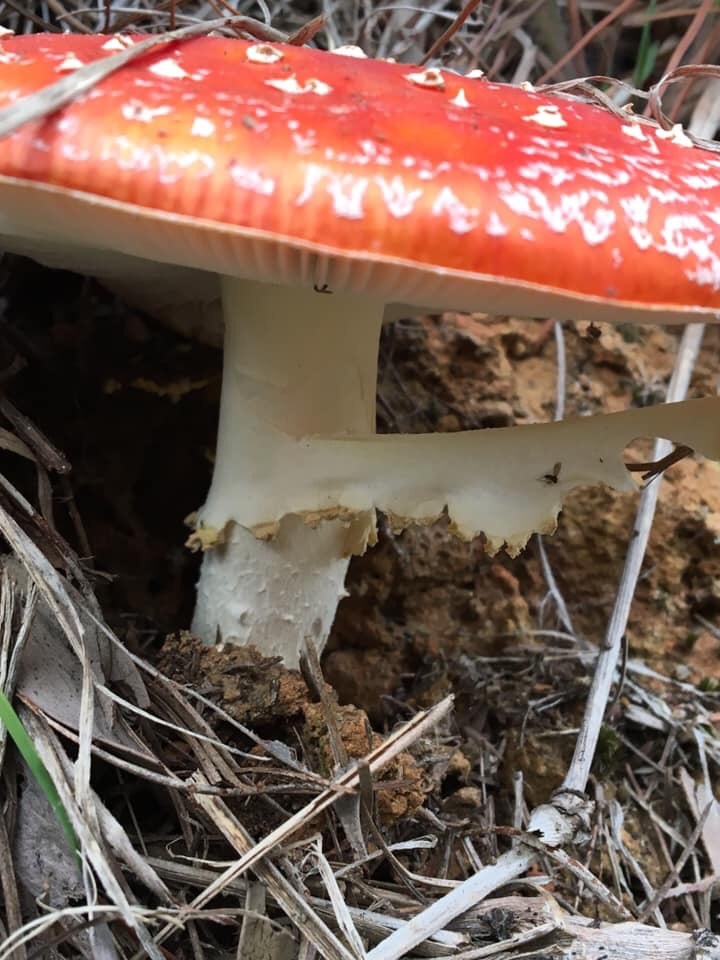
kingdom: Fungi
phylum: Basidiomycota
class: Agaricomycetes
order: Agaricales
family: Amanitaceae
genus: Amanita
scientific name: Amanita muscaria
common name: Fly agaric
